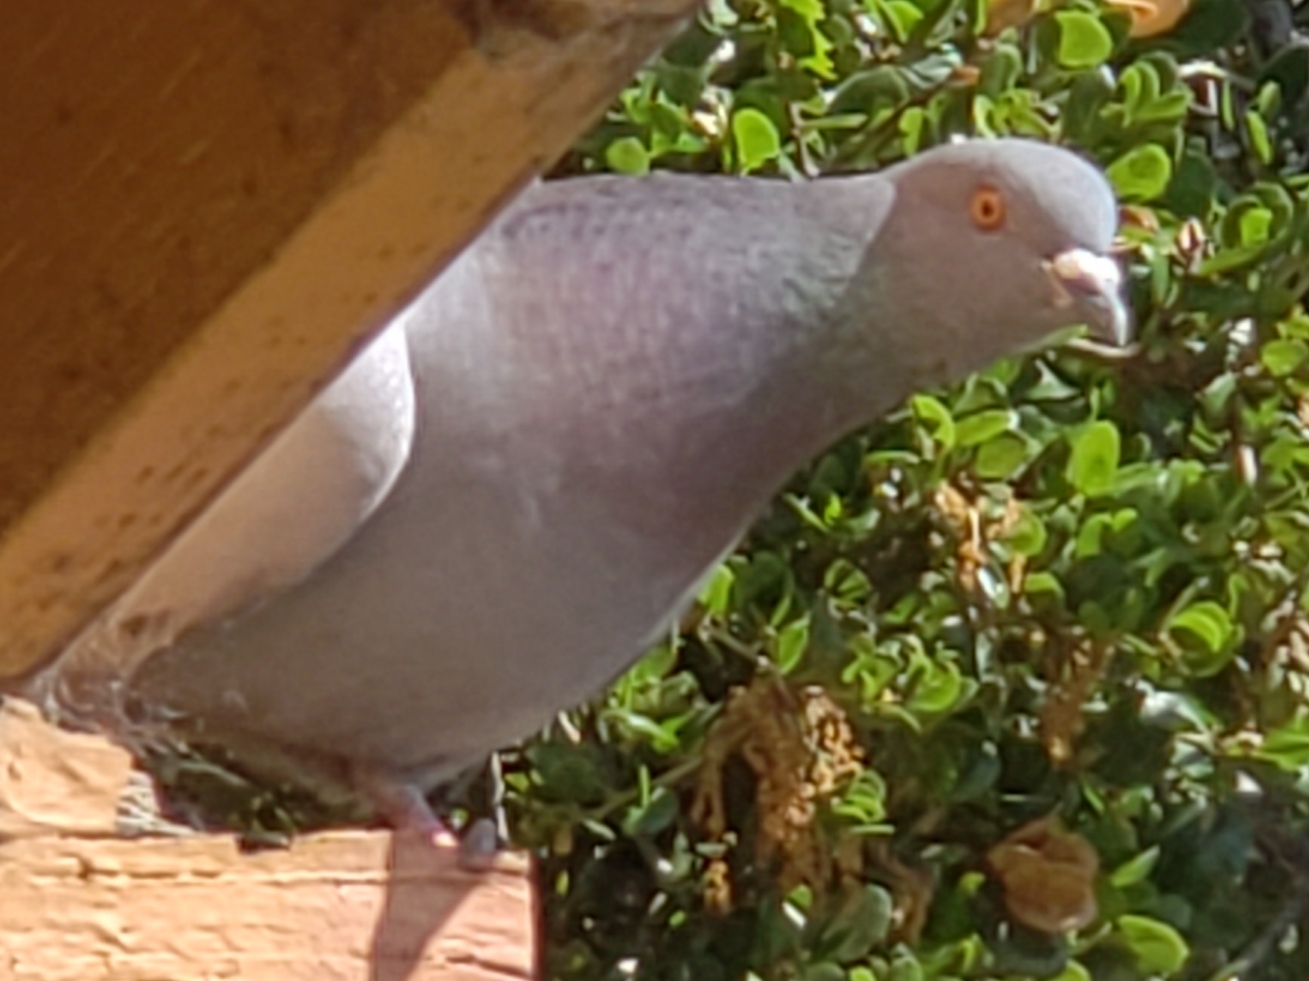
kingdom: Animalia
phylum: Chordata
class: Aves
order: Columbiformes
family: Columbidae
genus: Columba
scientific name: Columba livia
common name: Rock pigeon
